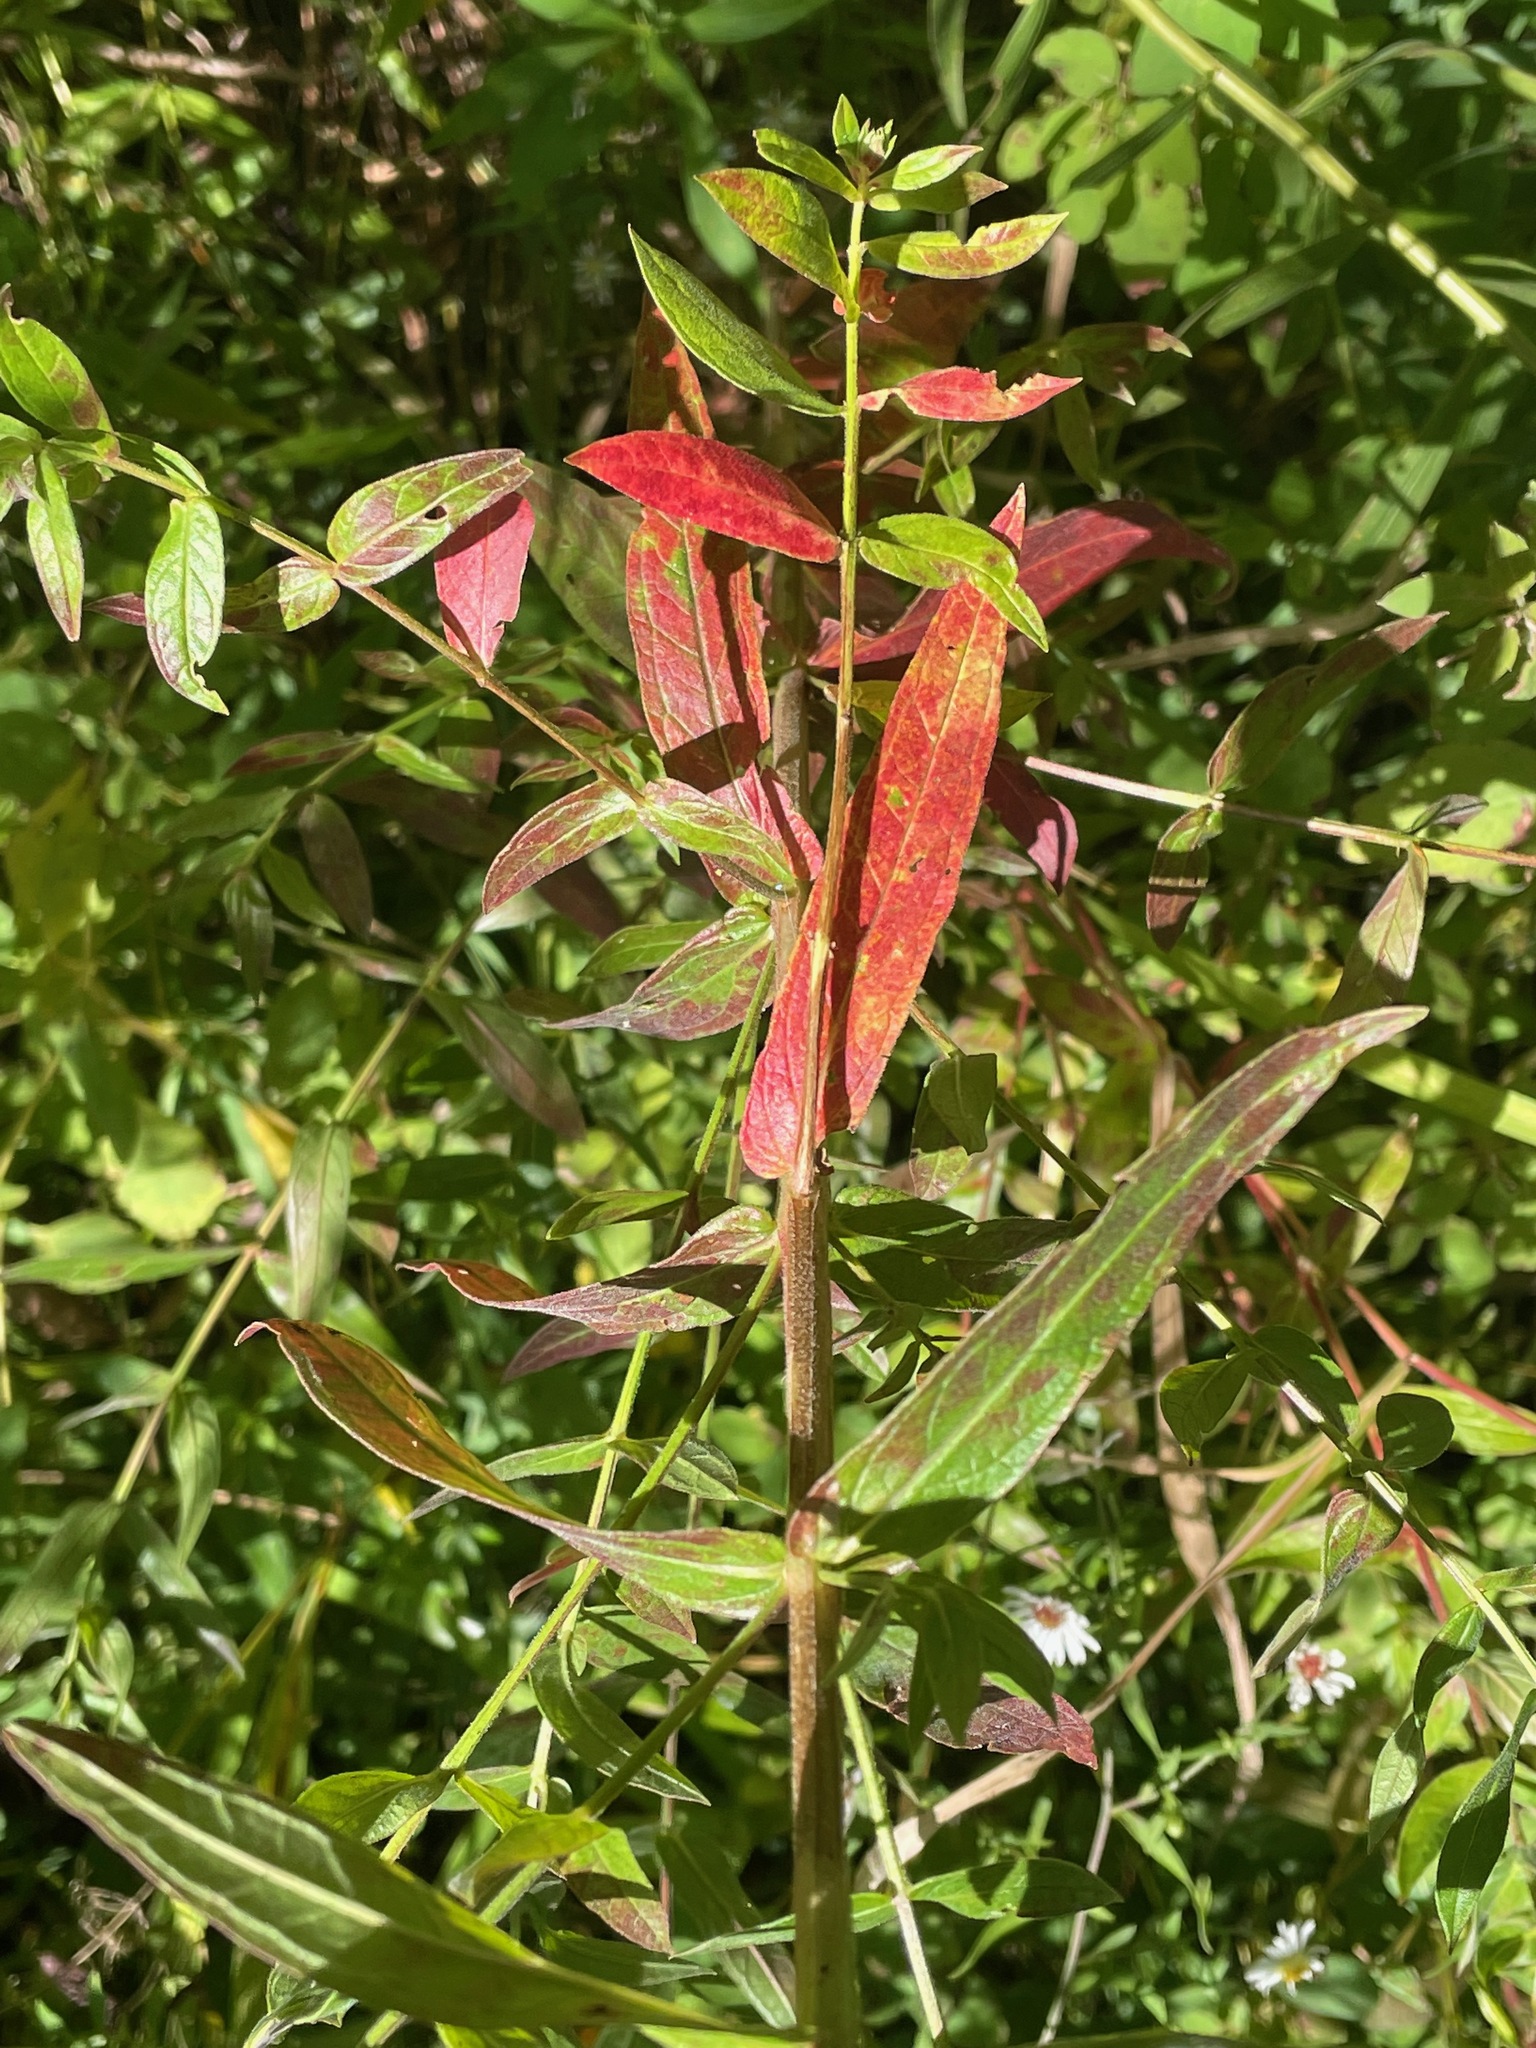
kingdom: Plantae
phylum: Tracheophyta
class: Magnoliopsida
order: Myrtales
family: Lythraceae
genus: Lythrum
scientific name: Lythrum salicaria
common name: Purple loosestrife
